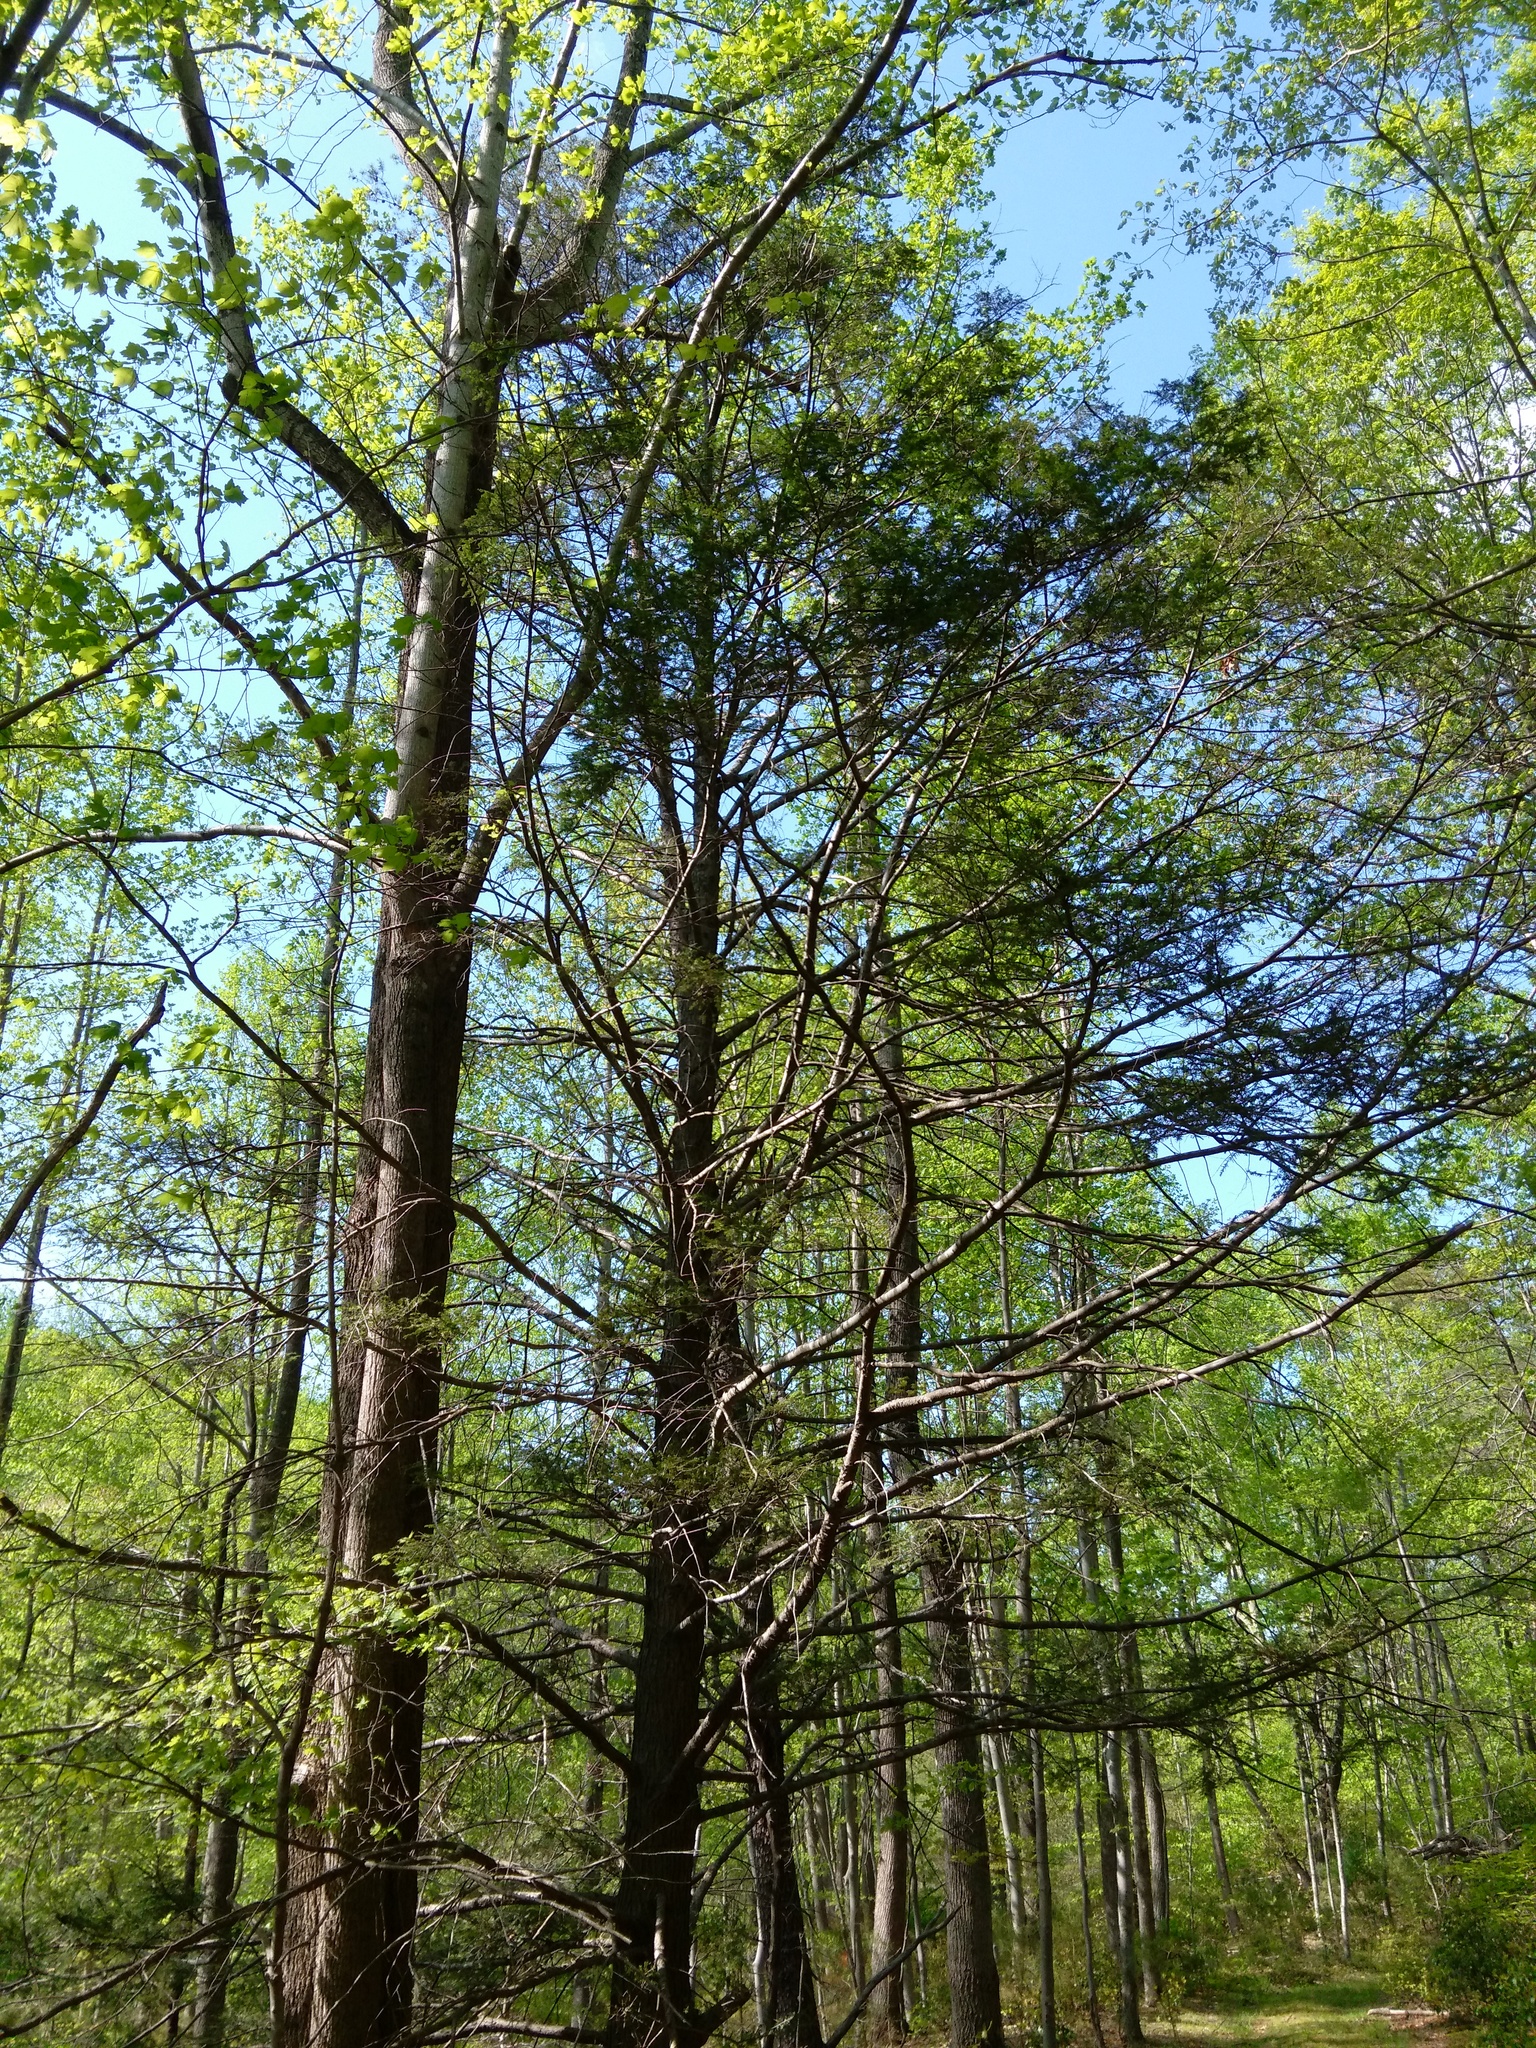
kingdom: Plantae
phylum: Tracheophyta
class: Pinopsida
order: Pinales
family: Pinaceae
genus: Tsuga
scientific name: Tsuga canadensis
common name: Eastern hemlock
